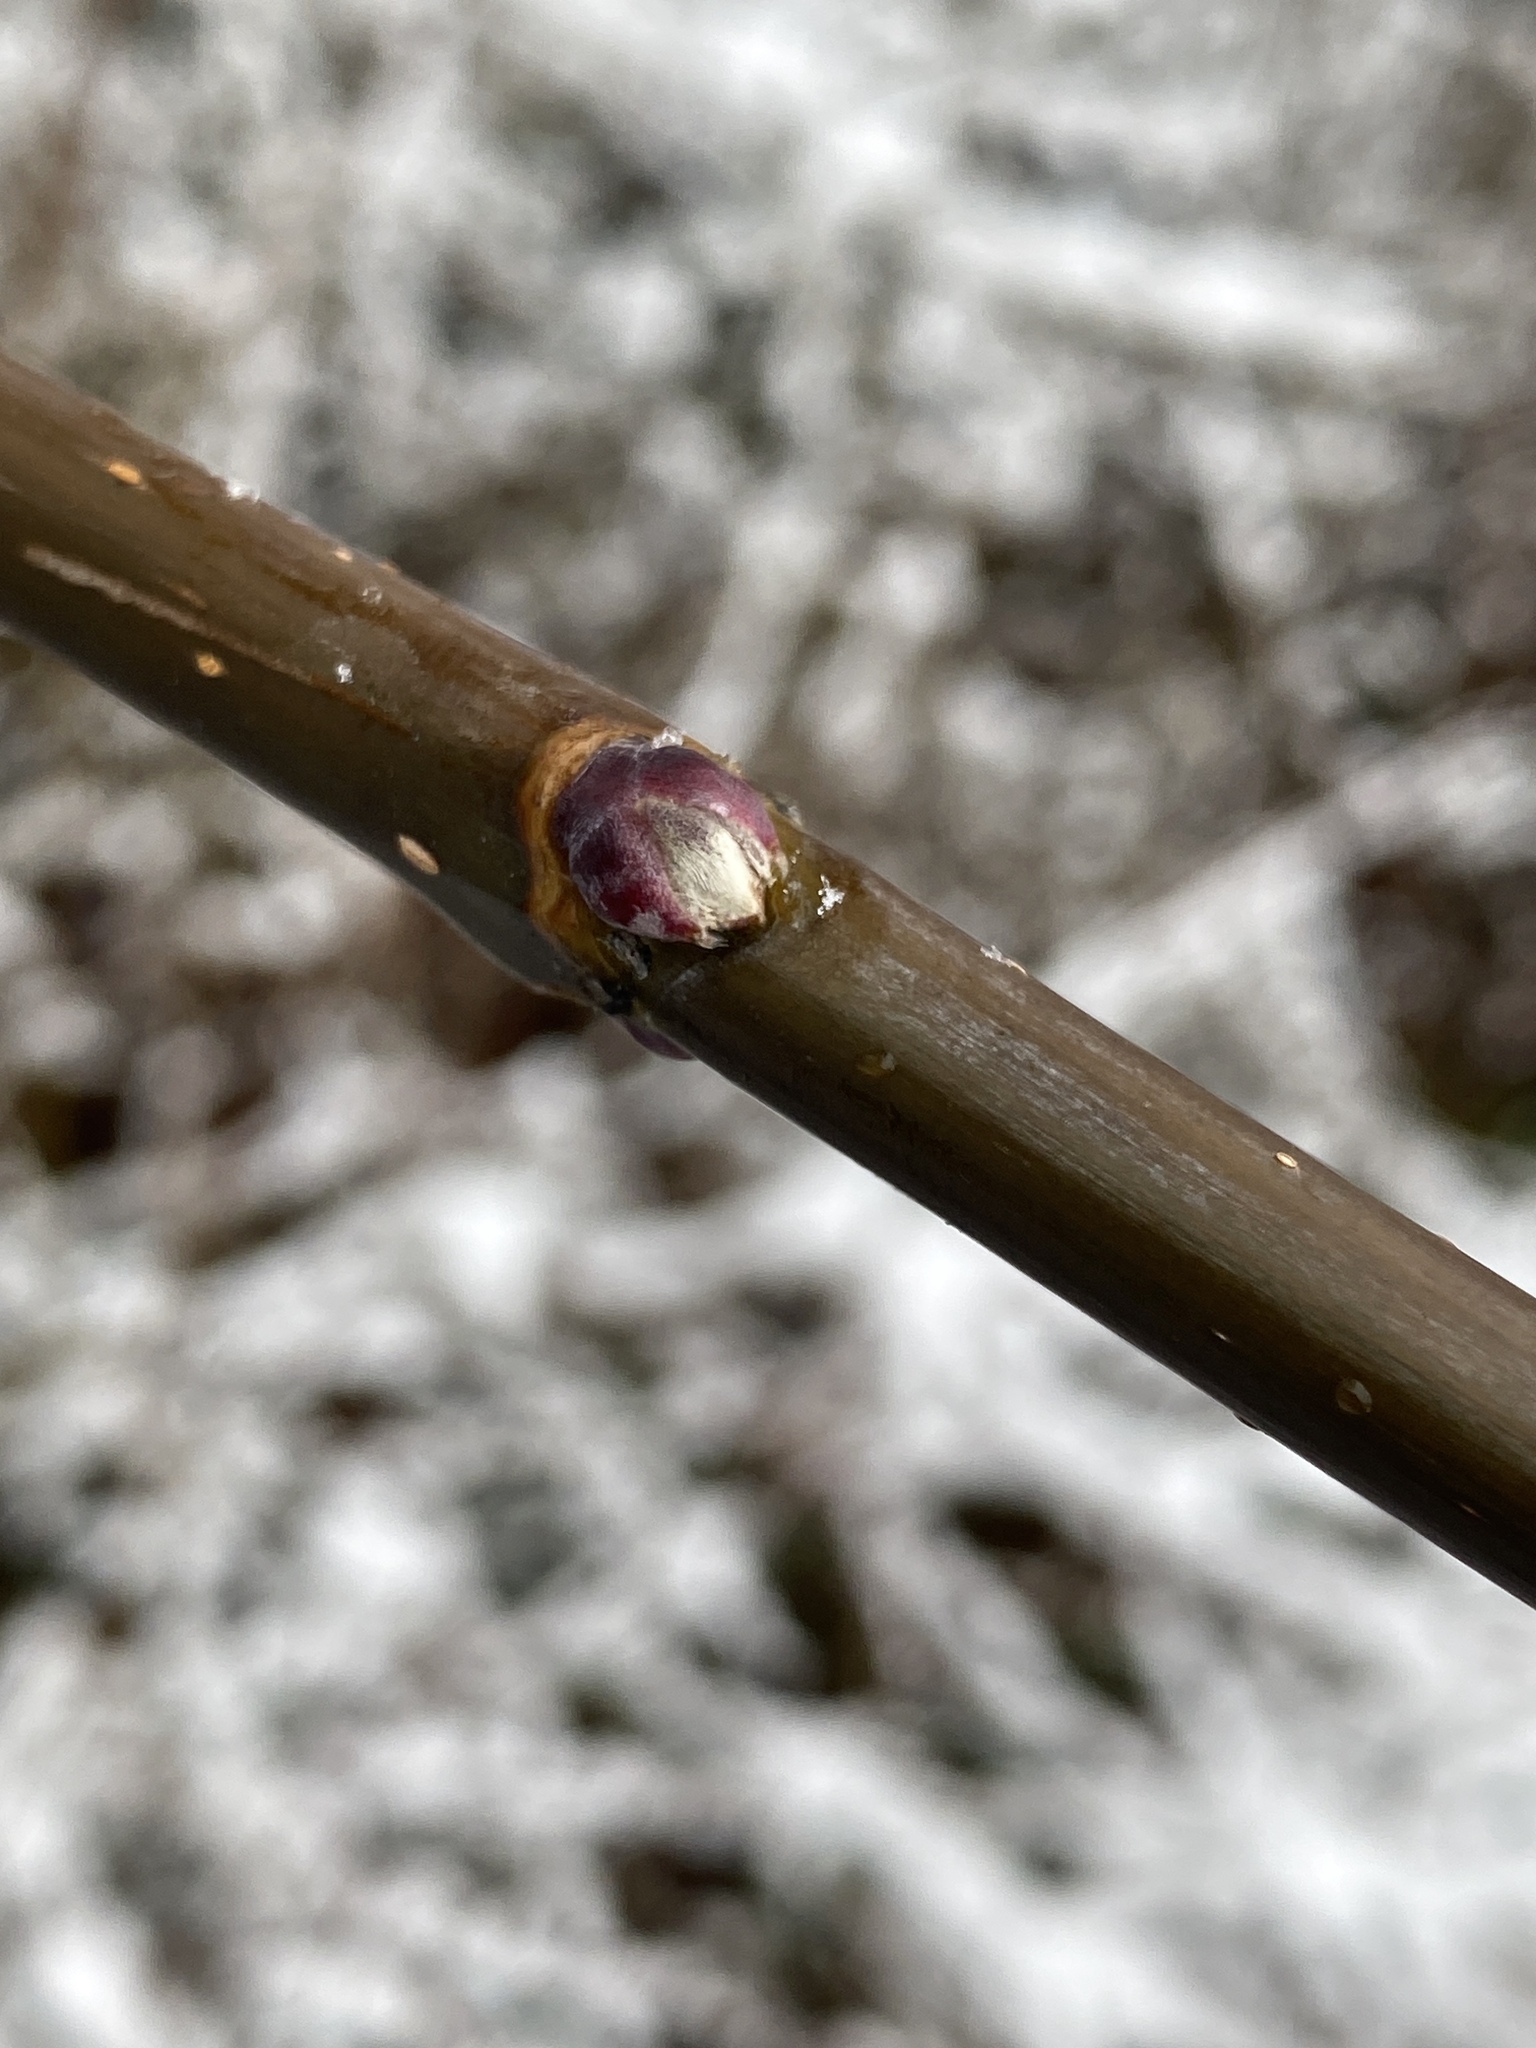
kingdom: Plantae
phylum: Tracheophyta
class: Magnoliopsida
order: Sapindales
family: Sapindaceae
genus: Acer
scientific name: Acer negundo
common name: Ashleaf maple
